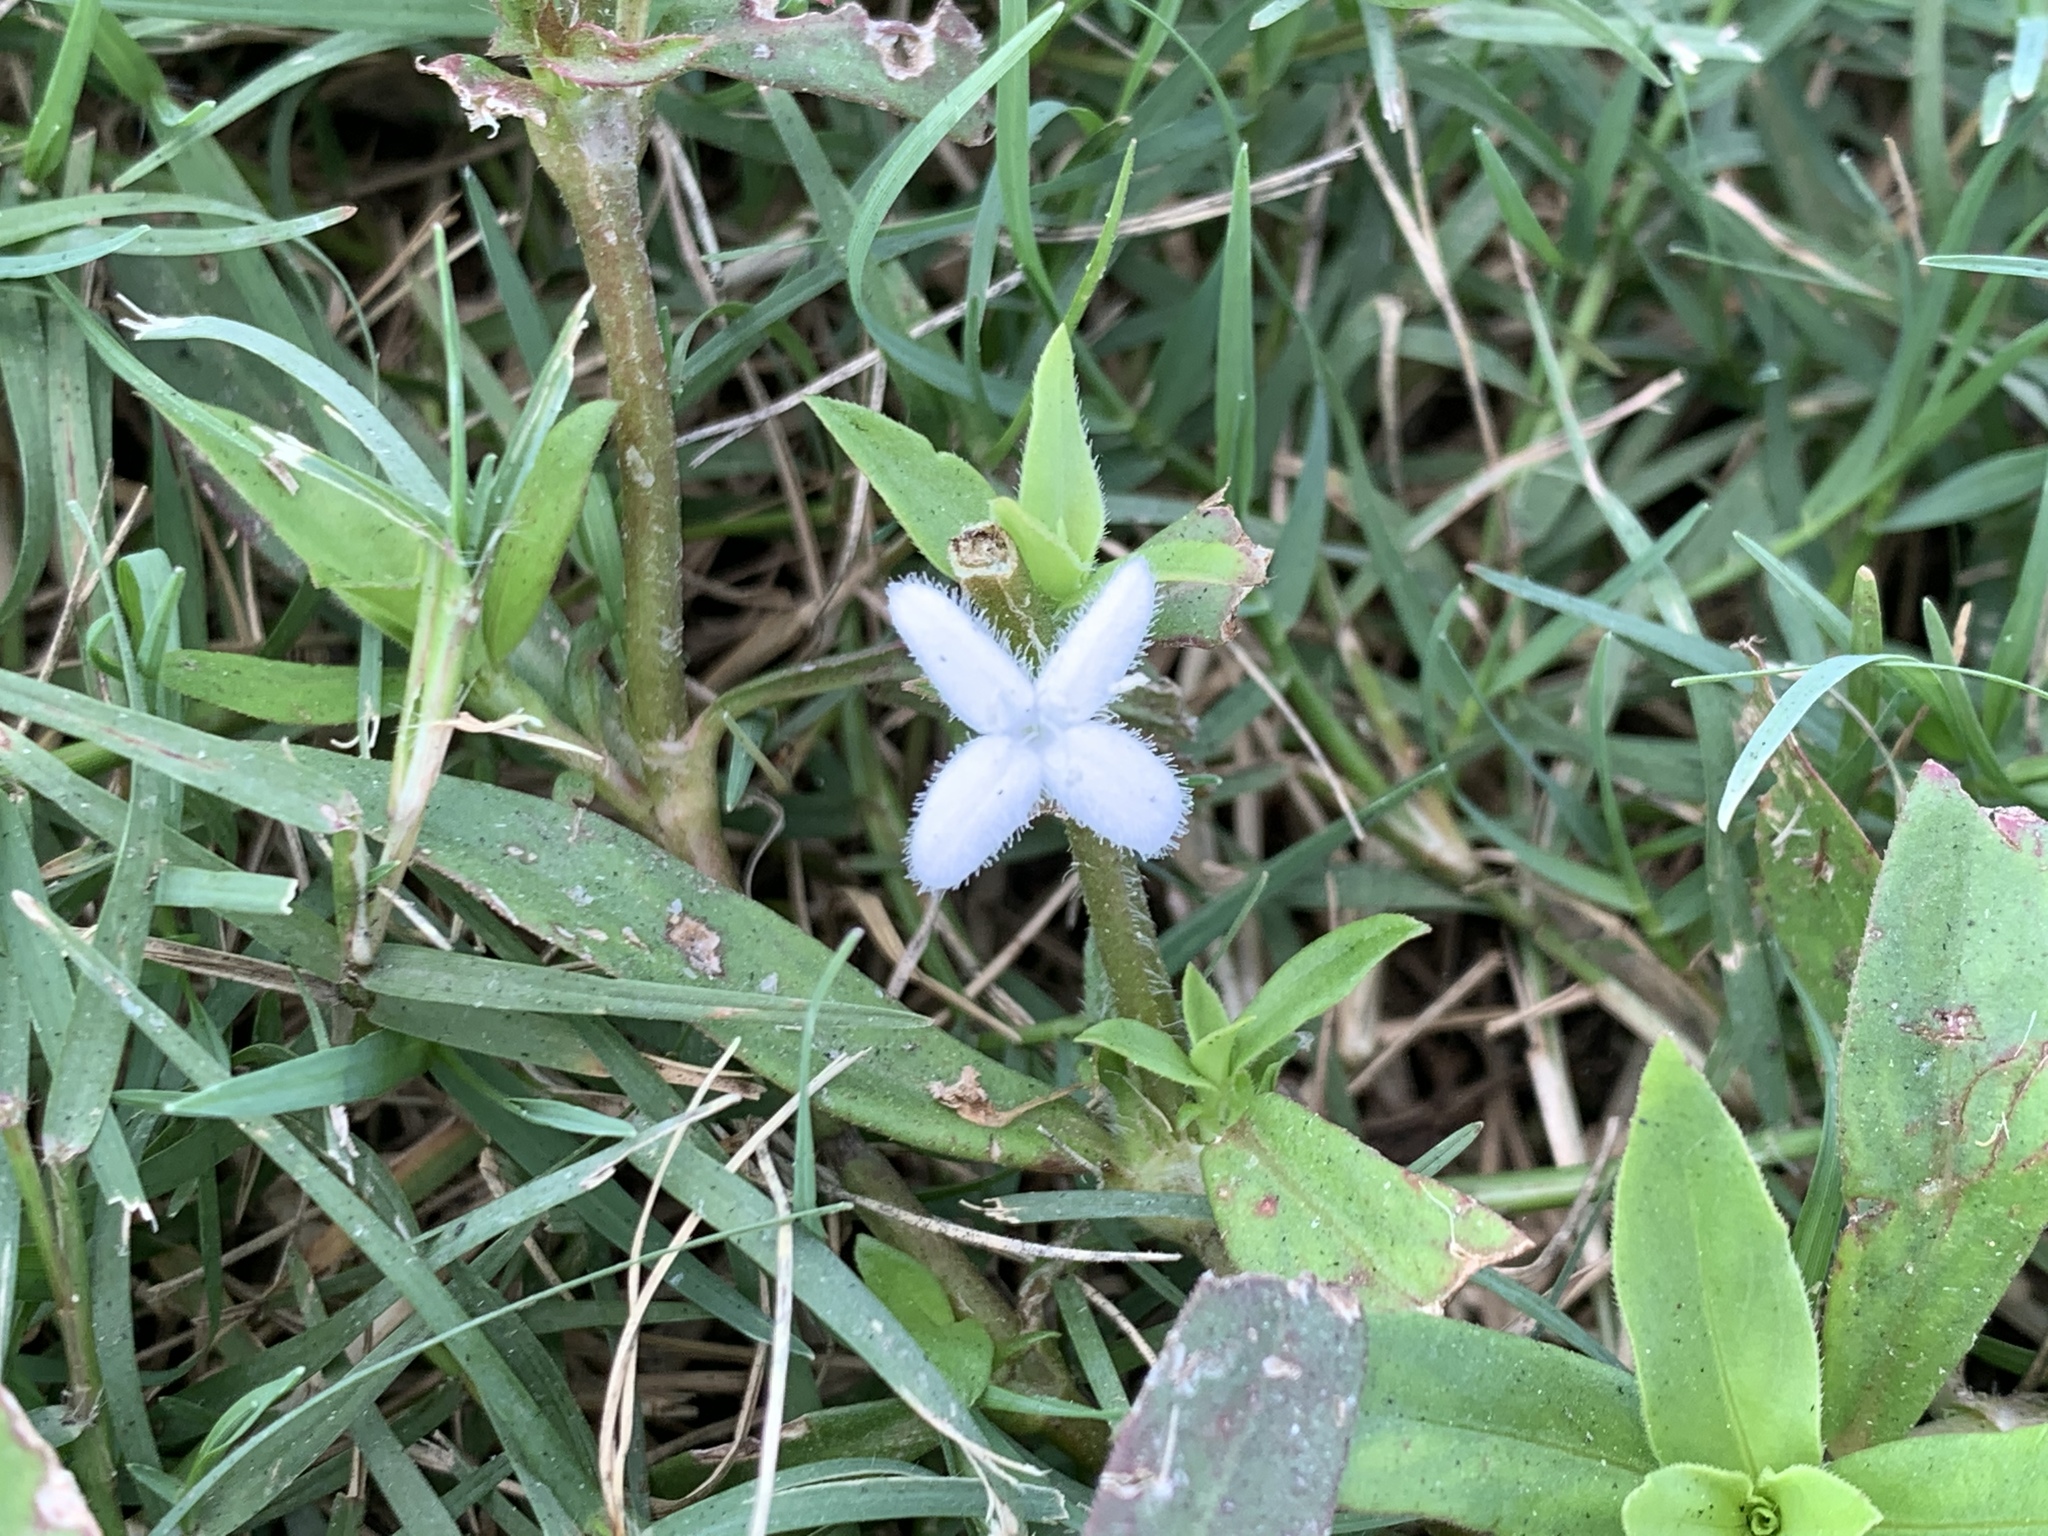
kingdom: Plantae
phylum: Tracheophyta
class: Magnoliopsida
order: Gentianales
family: Rubiaceae
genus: Diodia
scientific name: Diodia virginiana
